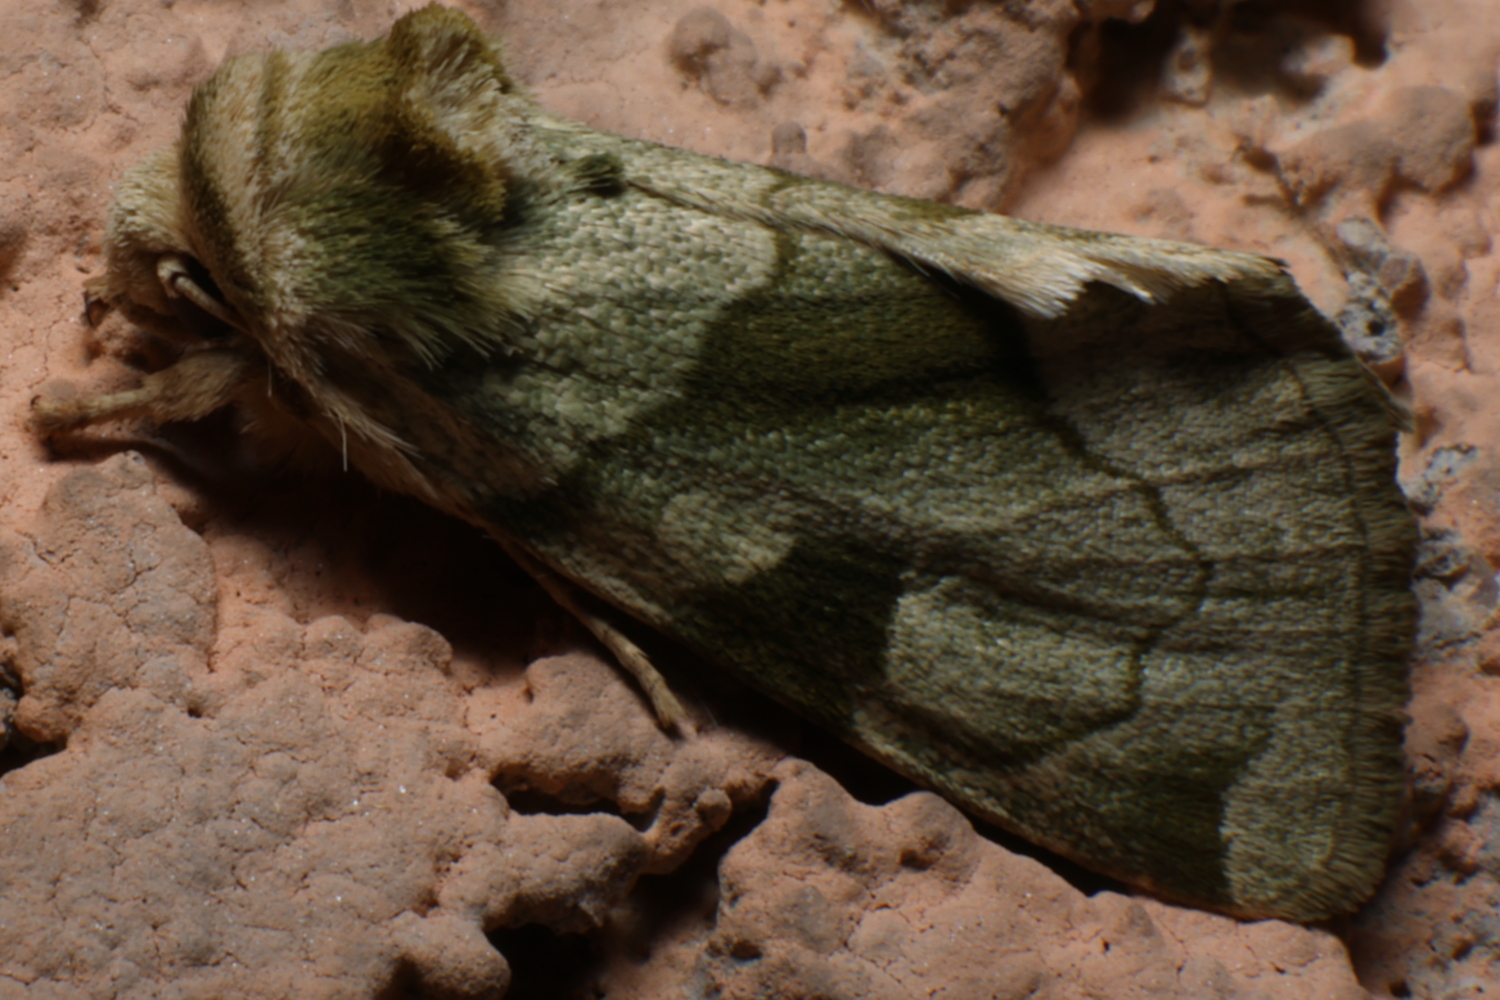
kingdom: Animalia
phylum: Arthropoda
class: Insecta
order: Lepidoptera
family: Noctuidae
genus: Oslaria
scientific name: Oslaria viridifera
